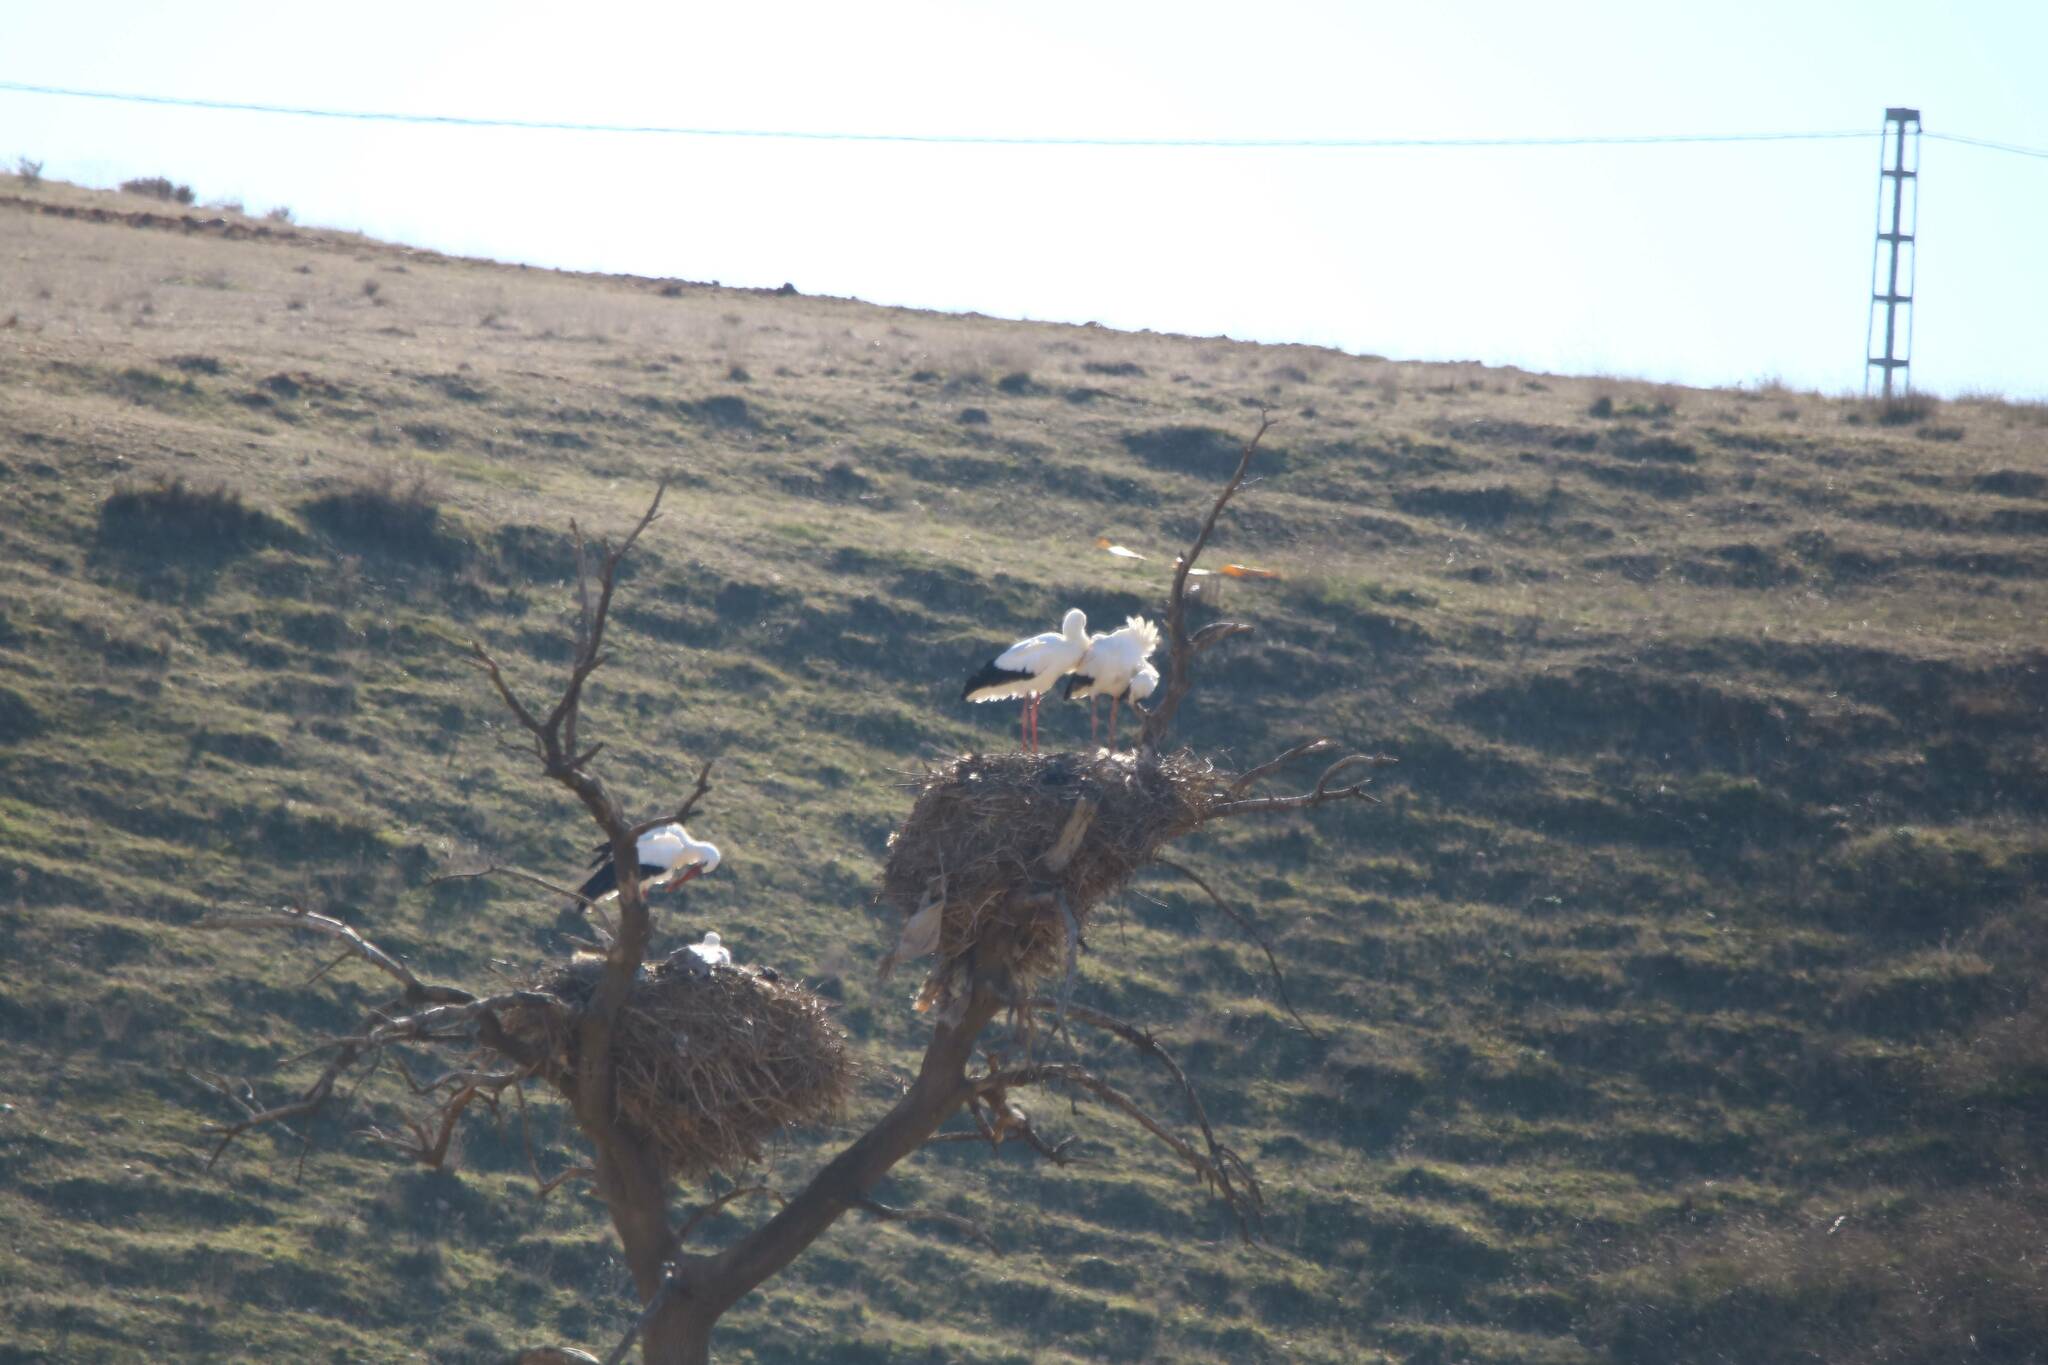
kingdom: Animalia
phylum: Chordata
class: Aves
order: Ciconiiformes
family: Ciconiidae
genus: Ciconia
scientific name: Ciconia ciconia
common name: White stork
